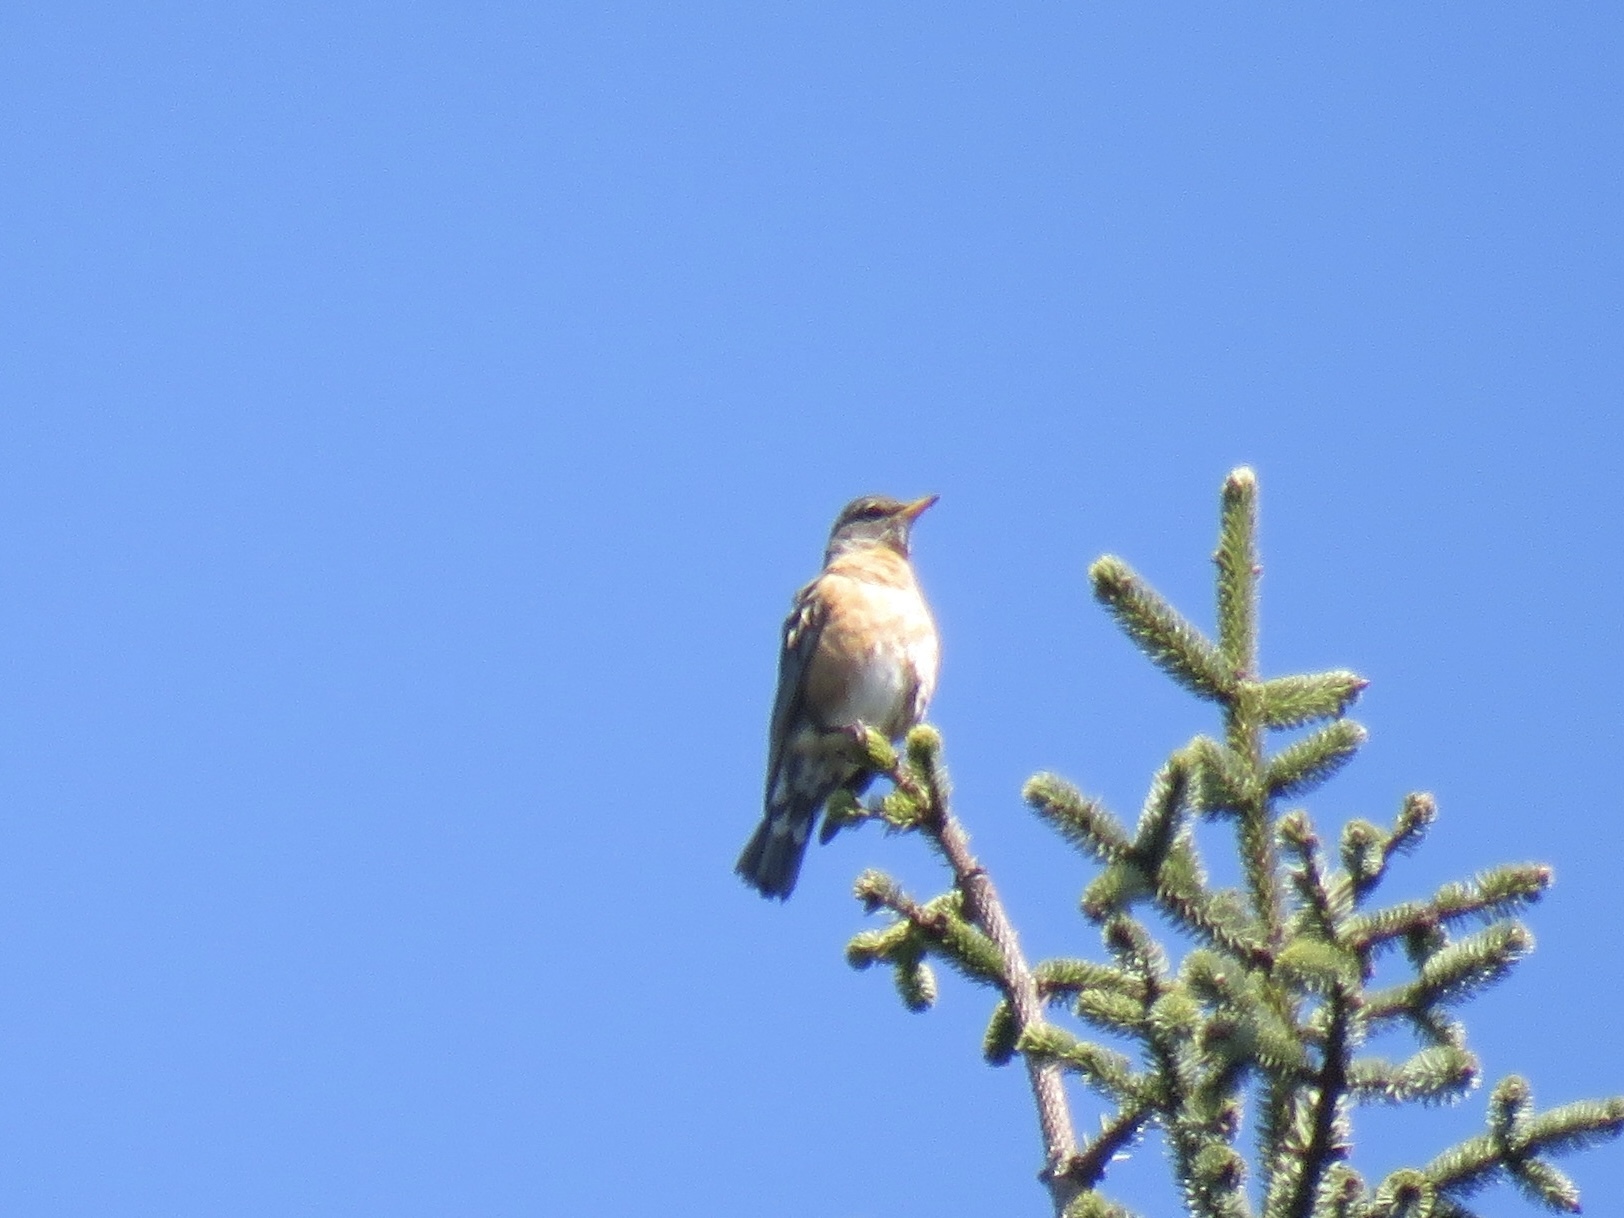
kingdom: Animalia
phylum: Chordata
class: Aves
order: Passeriformes
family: Turdidae
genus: Turdus
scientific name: Turdus migratorius
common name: American robin
